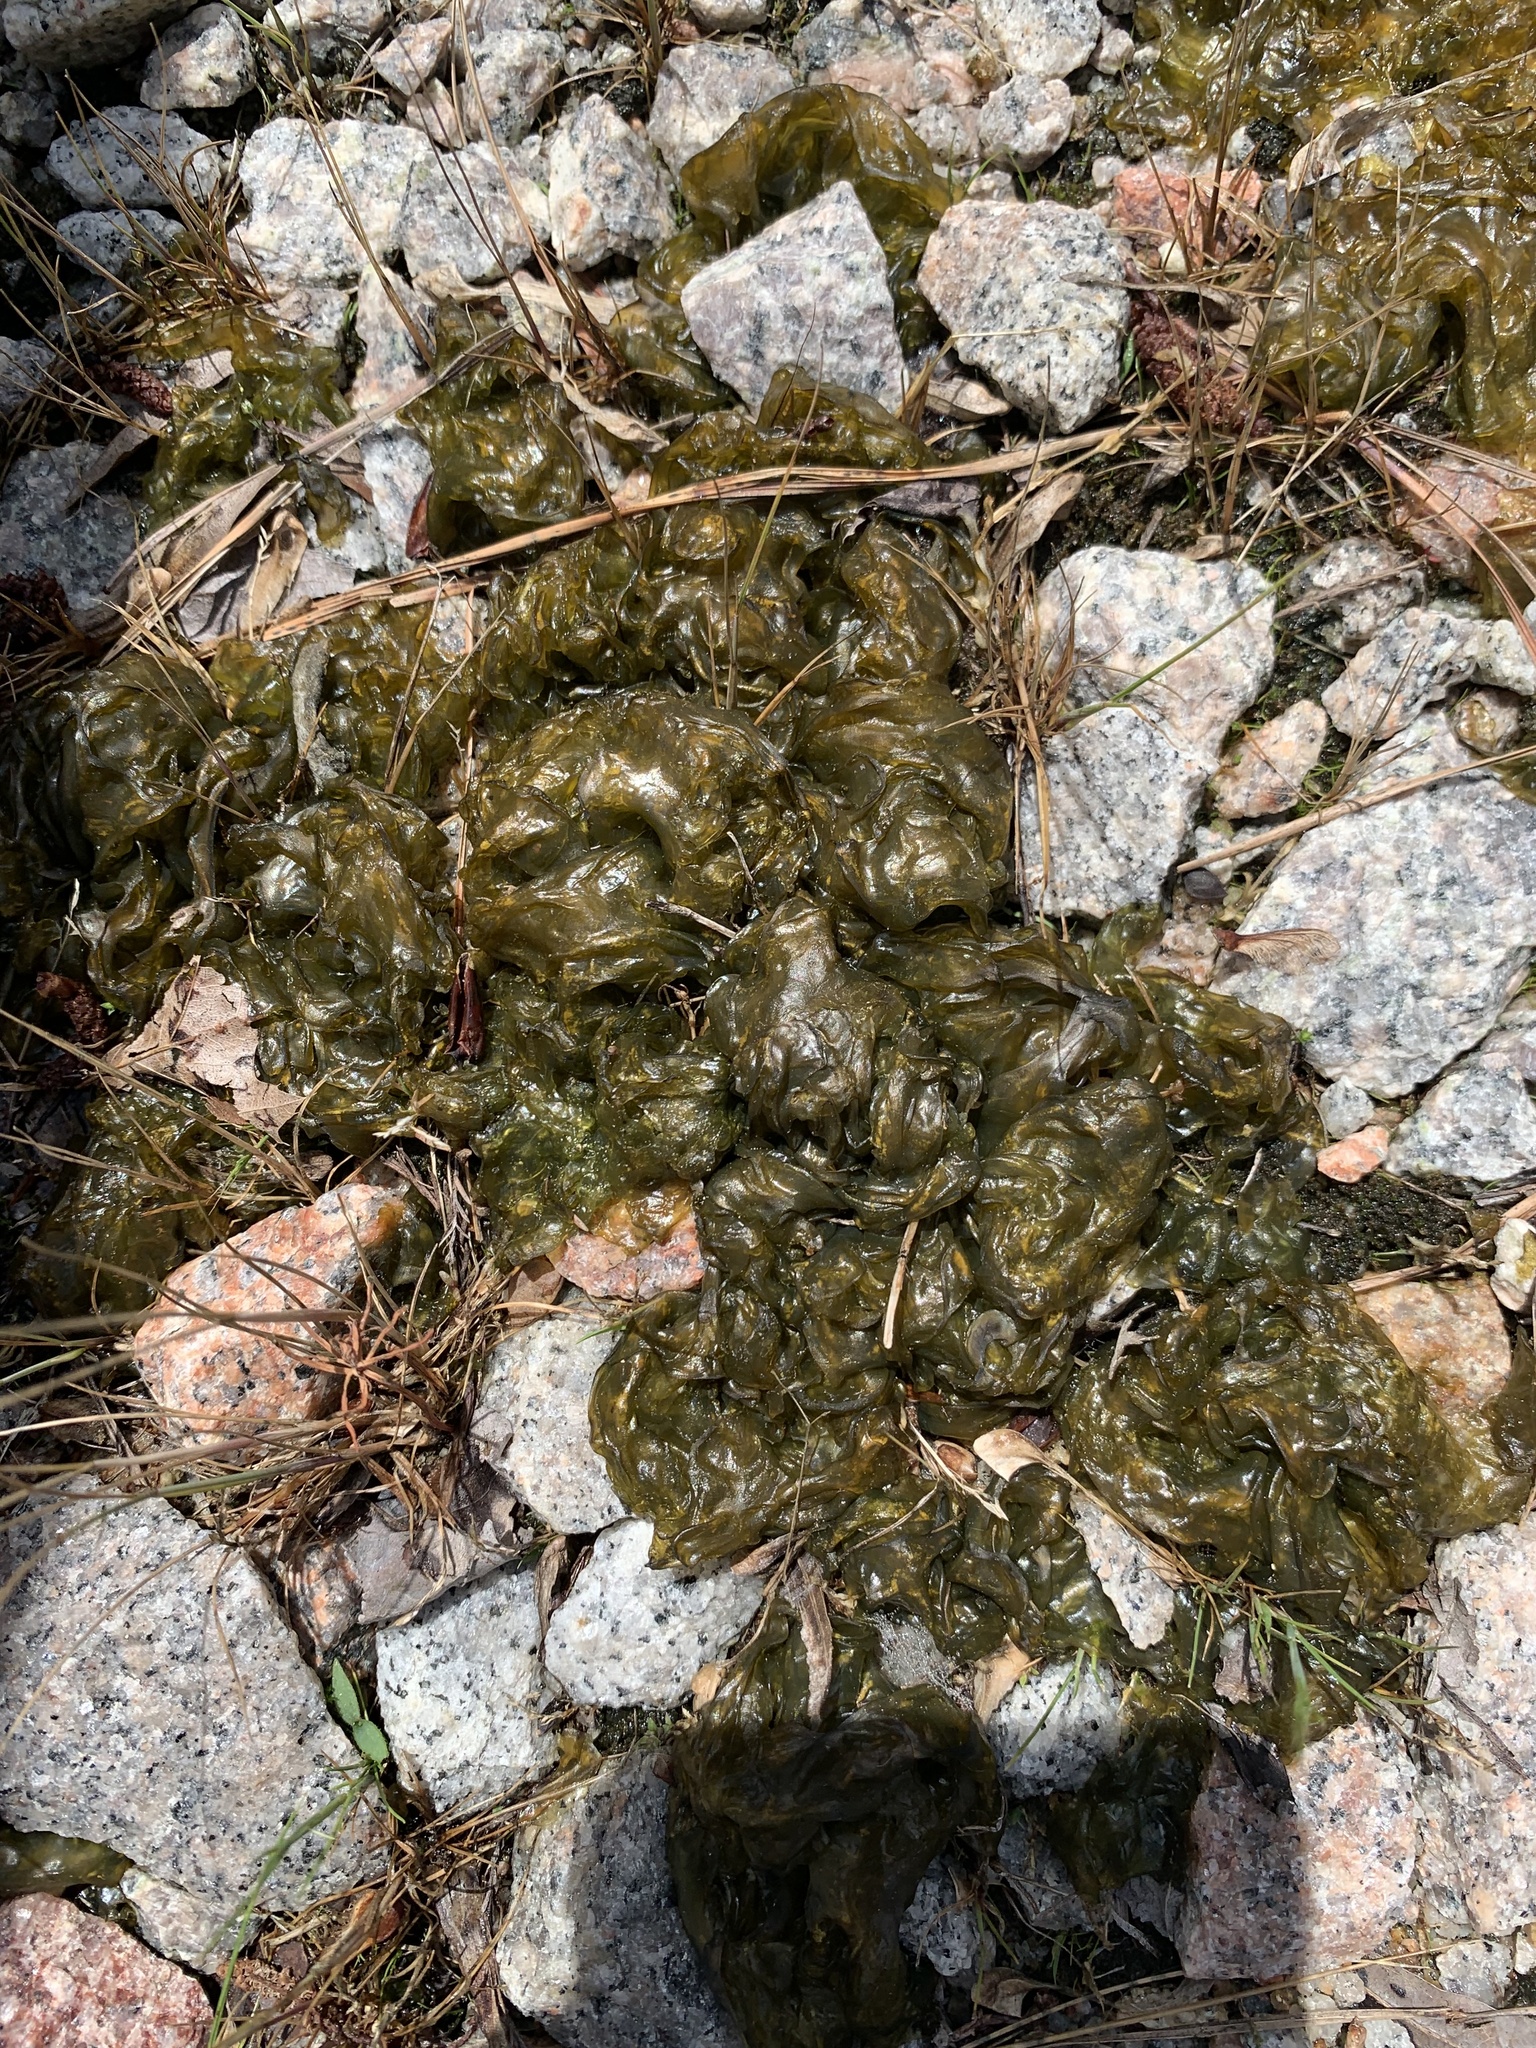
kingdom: Bacteria
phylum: Cyanobacteria
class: Cyanobacteriia
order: Cyanobacteriales
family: Nostocaceae
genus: Nostoc
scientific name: Nostoc commune
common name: Star jelly
